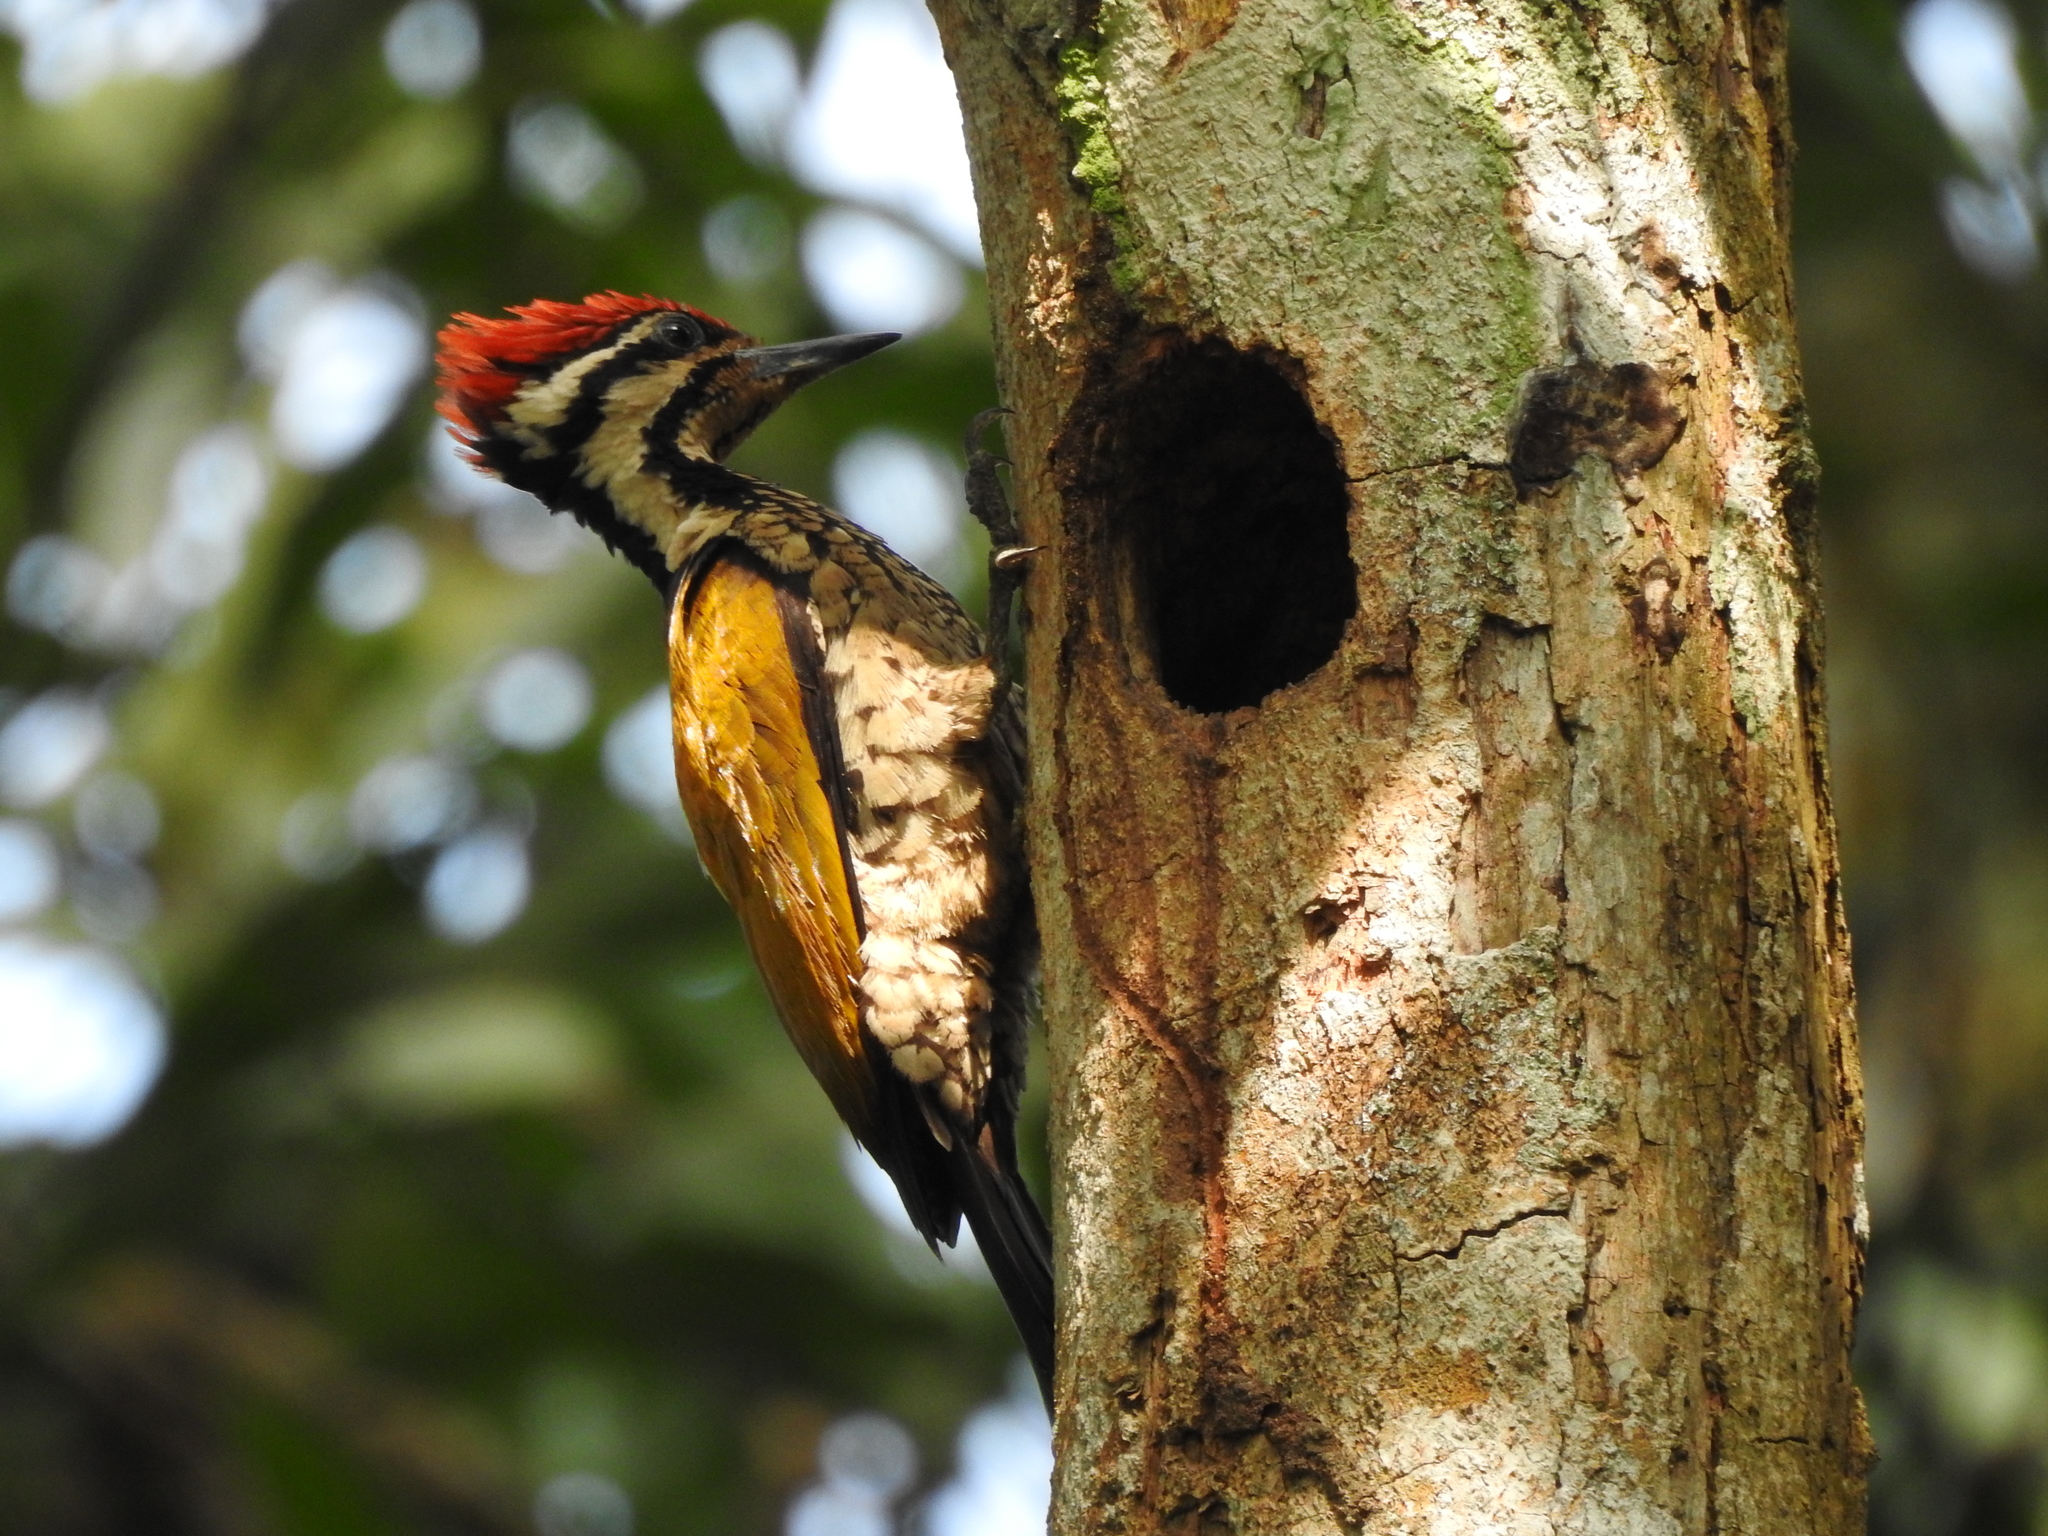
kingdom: Animalia
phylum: Chordata
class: Aves
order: Piciformes
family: Picidae
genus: Dinopium
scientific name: Dinopium javanense
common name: Common flameback
